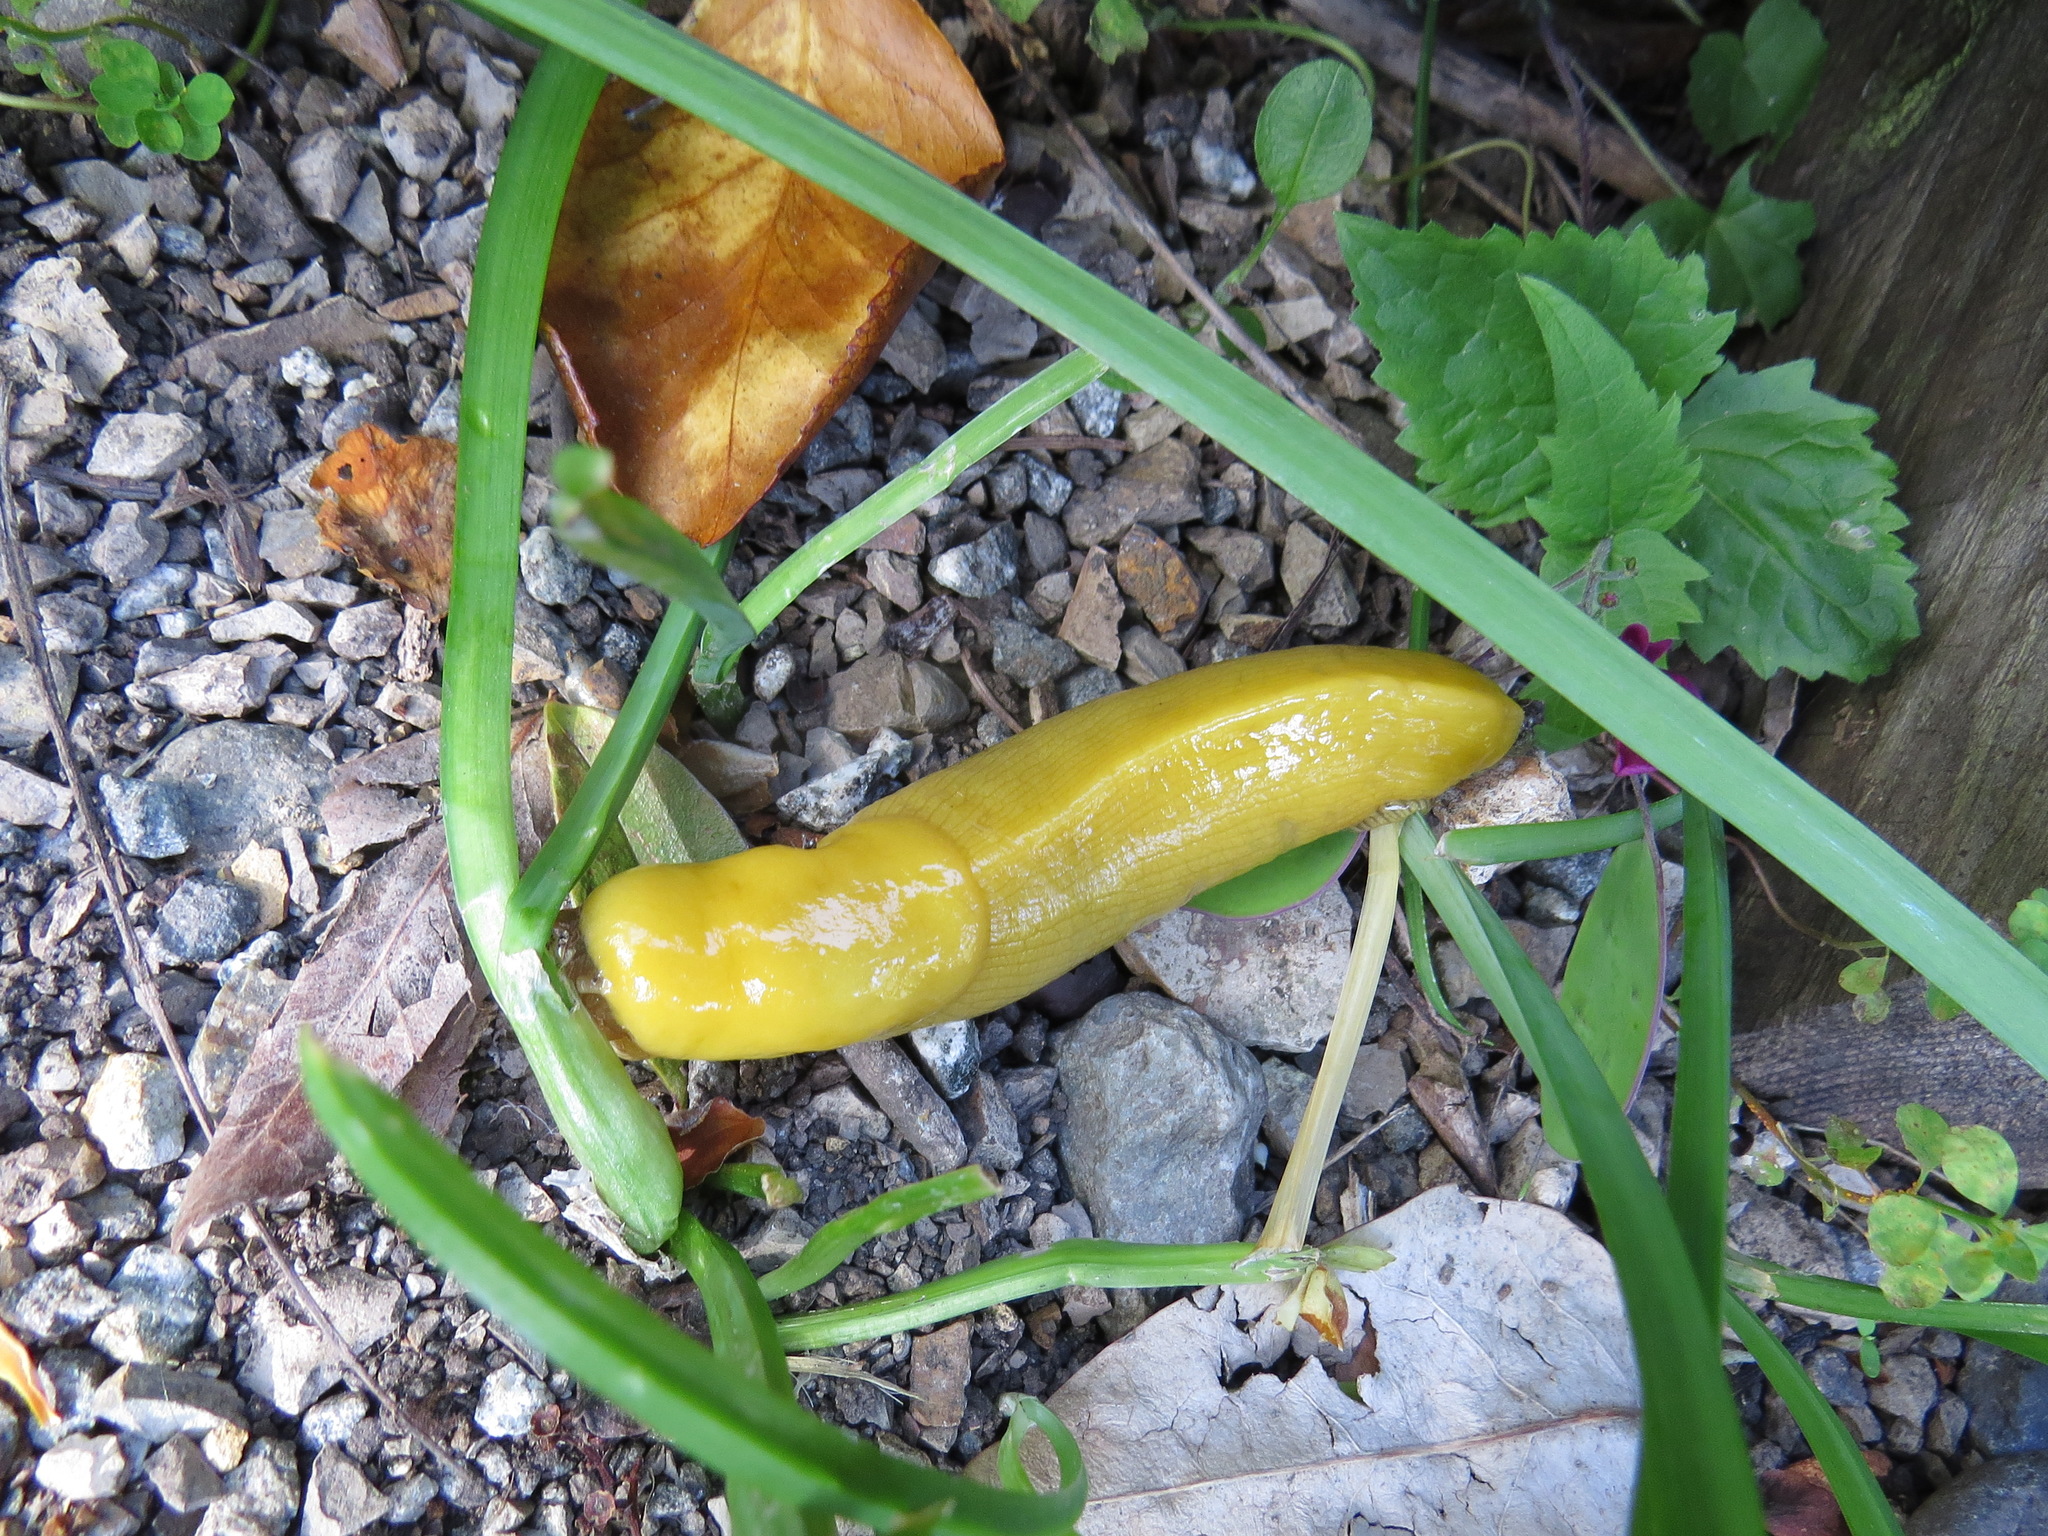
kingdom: Animalia
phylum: Mollusca
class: Gastropoda
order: Stylommatophora
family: Ariolimacidae
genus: Ariolimax
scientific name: Ariolimax californicus
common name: California banana slug
